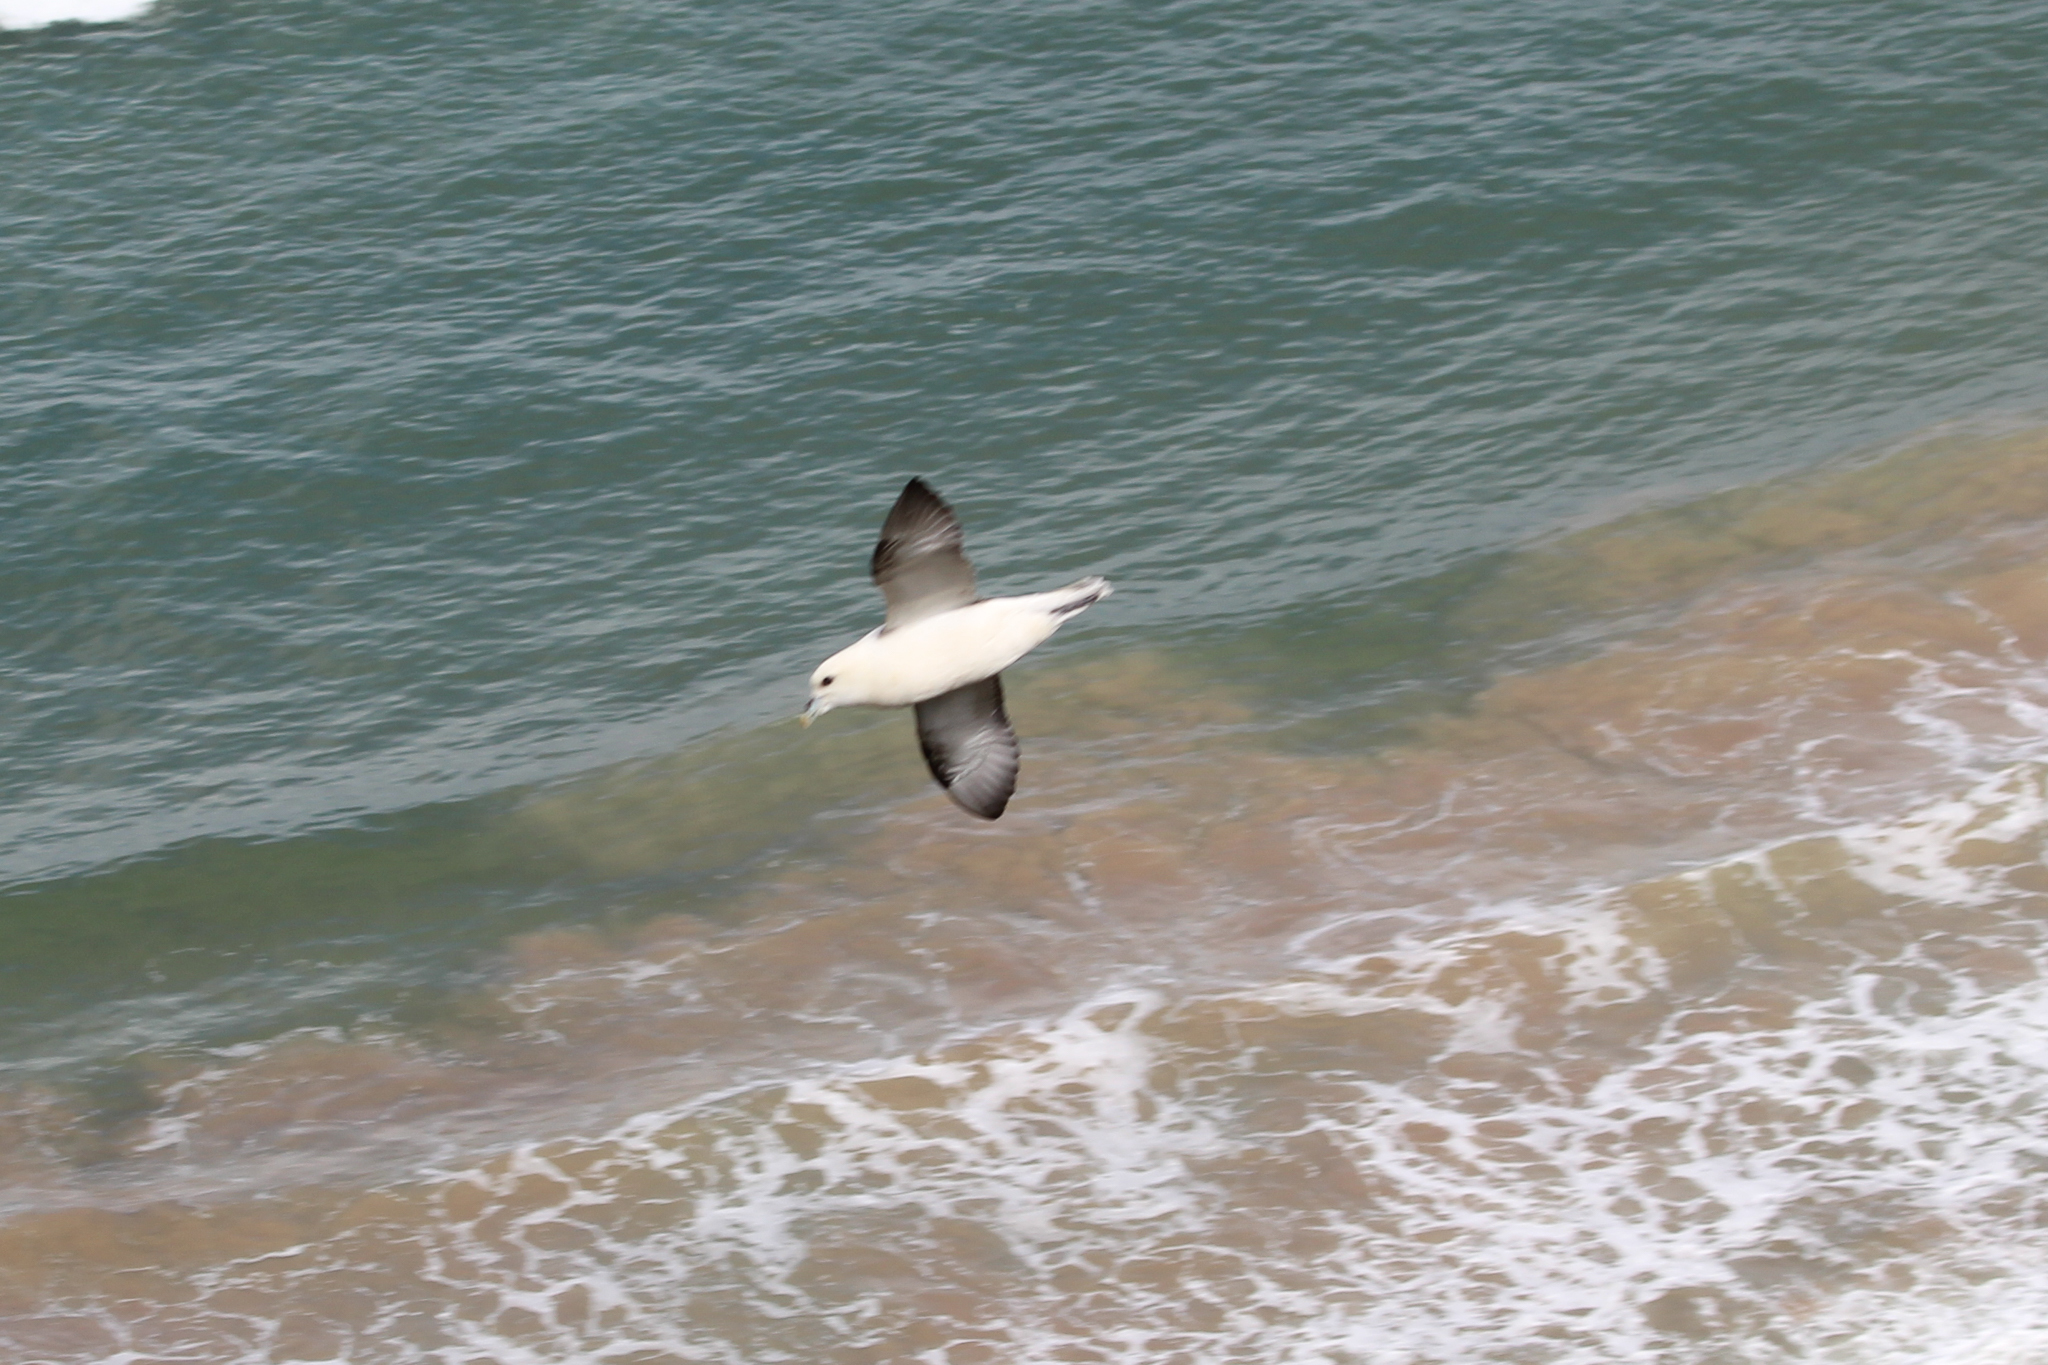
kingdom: Animalia
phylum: Chordata
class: Aves
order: Procellariiformes
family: Procellariidae
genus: Fulmarus
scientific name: Fulmarus glacialis
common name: Northern fulmar
